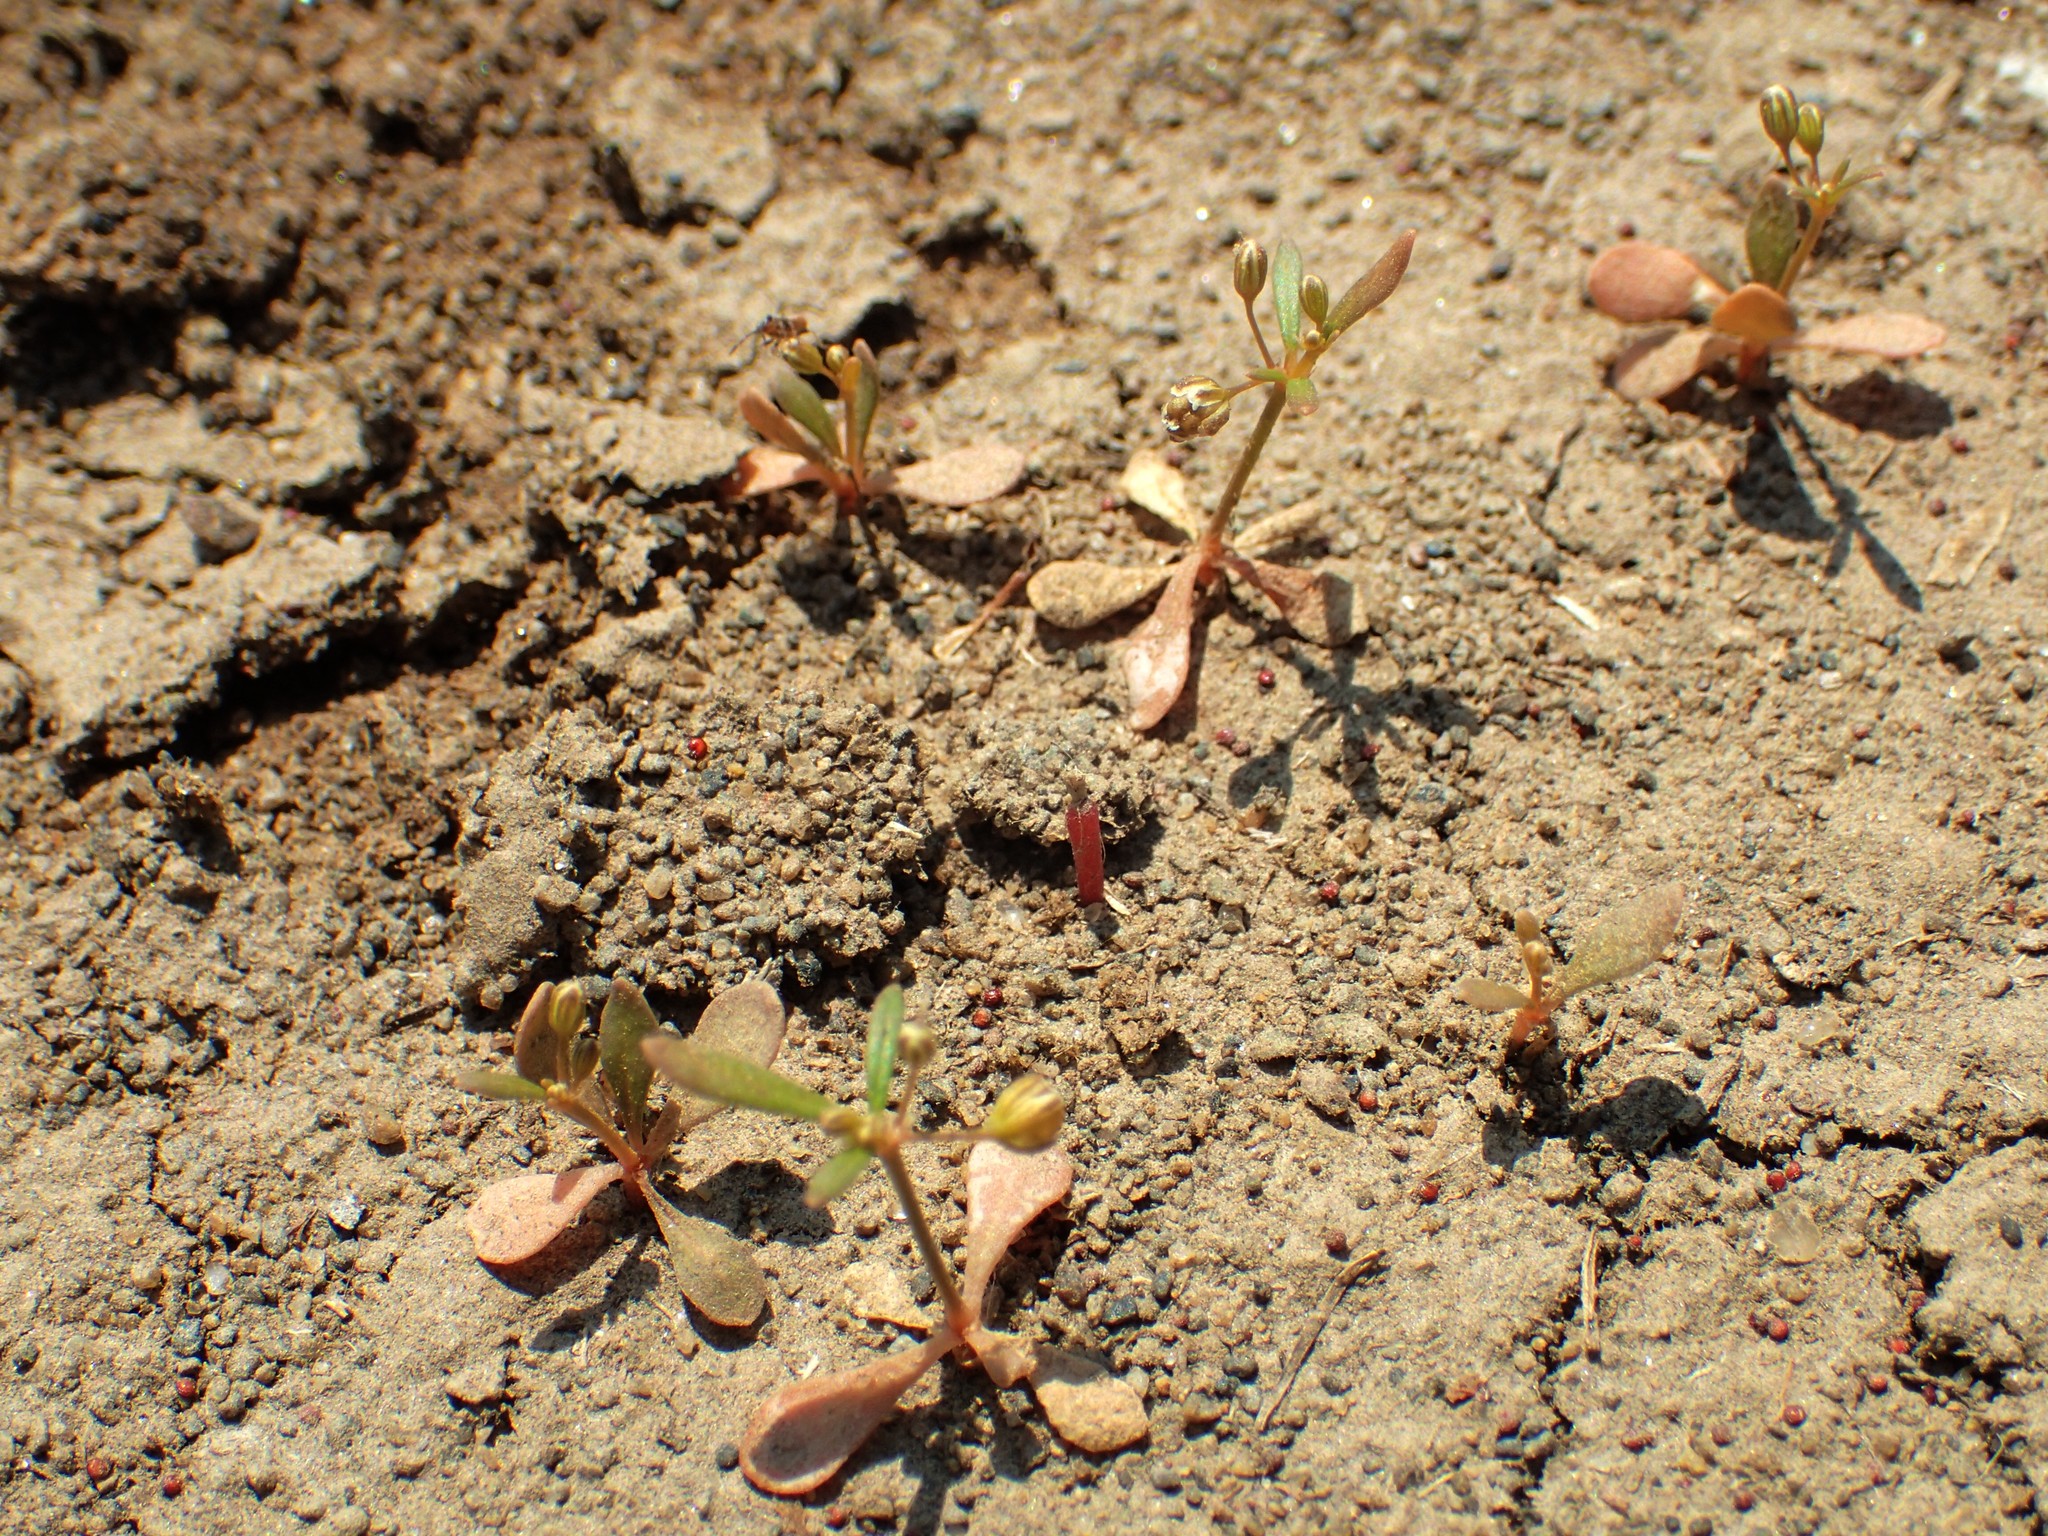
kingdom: Plantae
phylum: Tracheophyta
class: Magnoliopsida
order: Caryophyllales
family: Molluginaceae
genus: Trigastrotheca
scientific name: Trigastrotheca stricta
